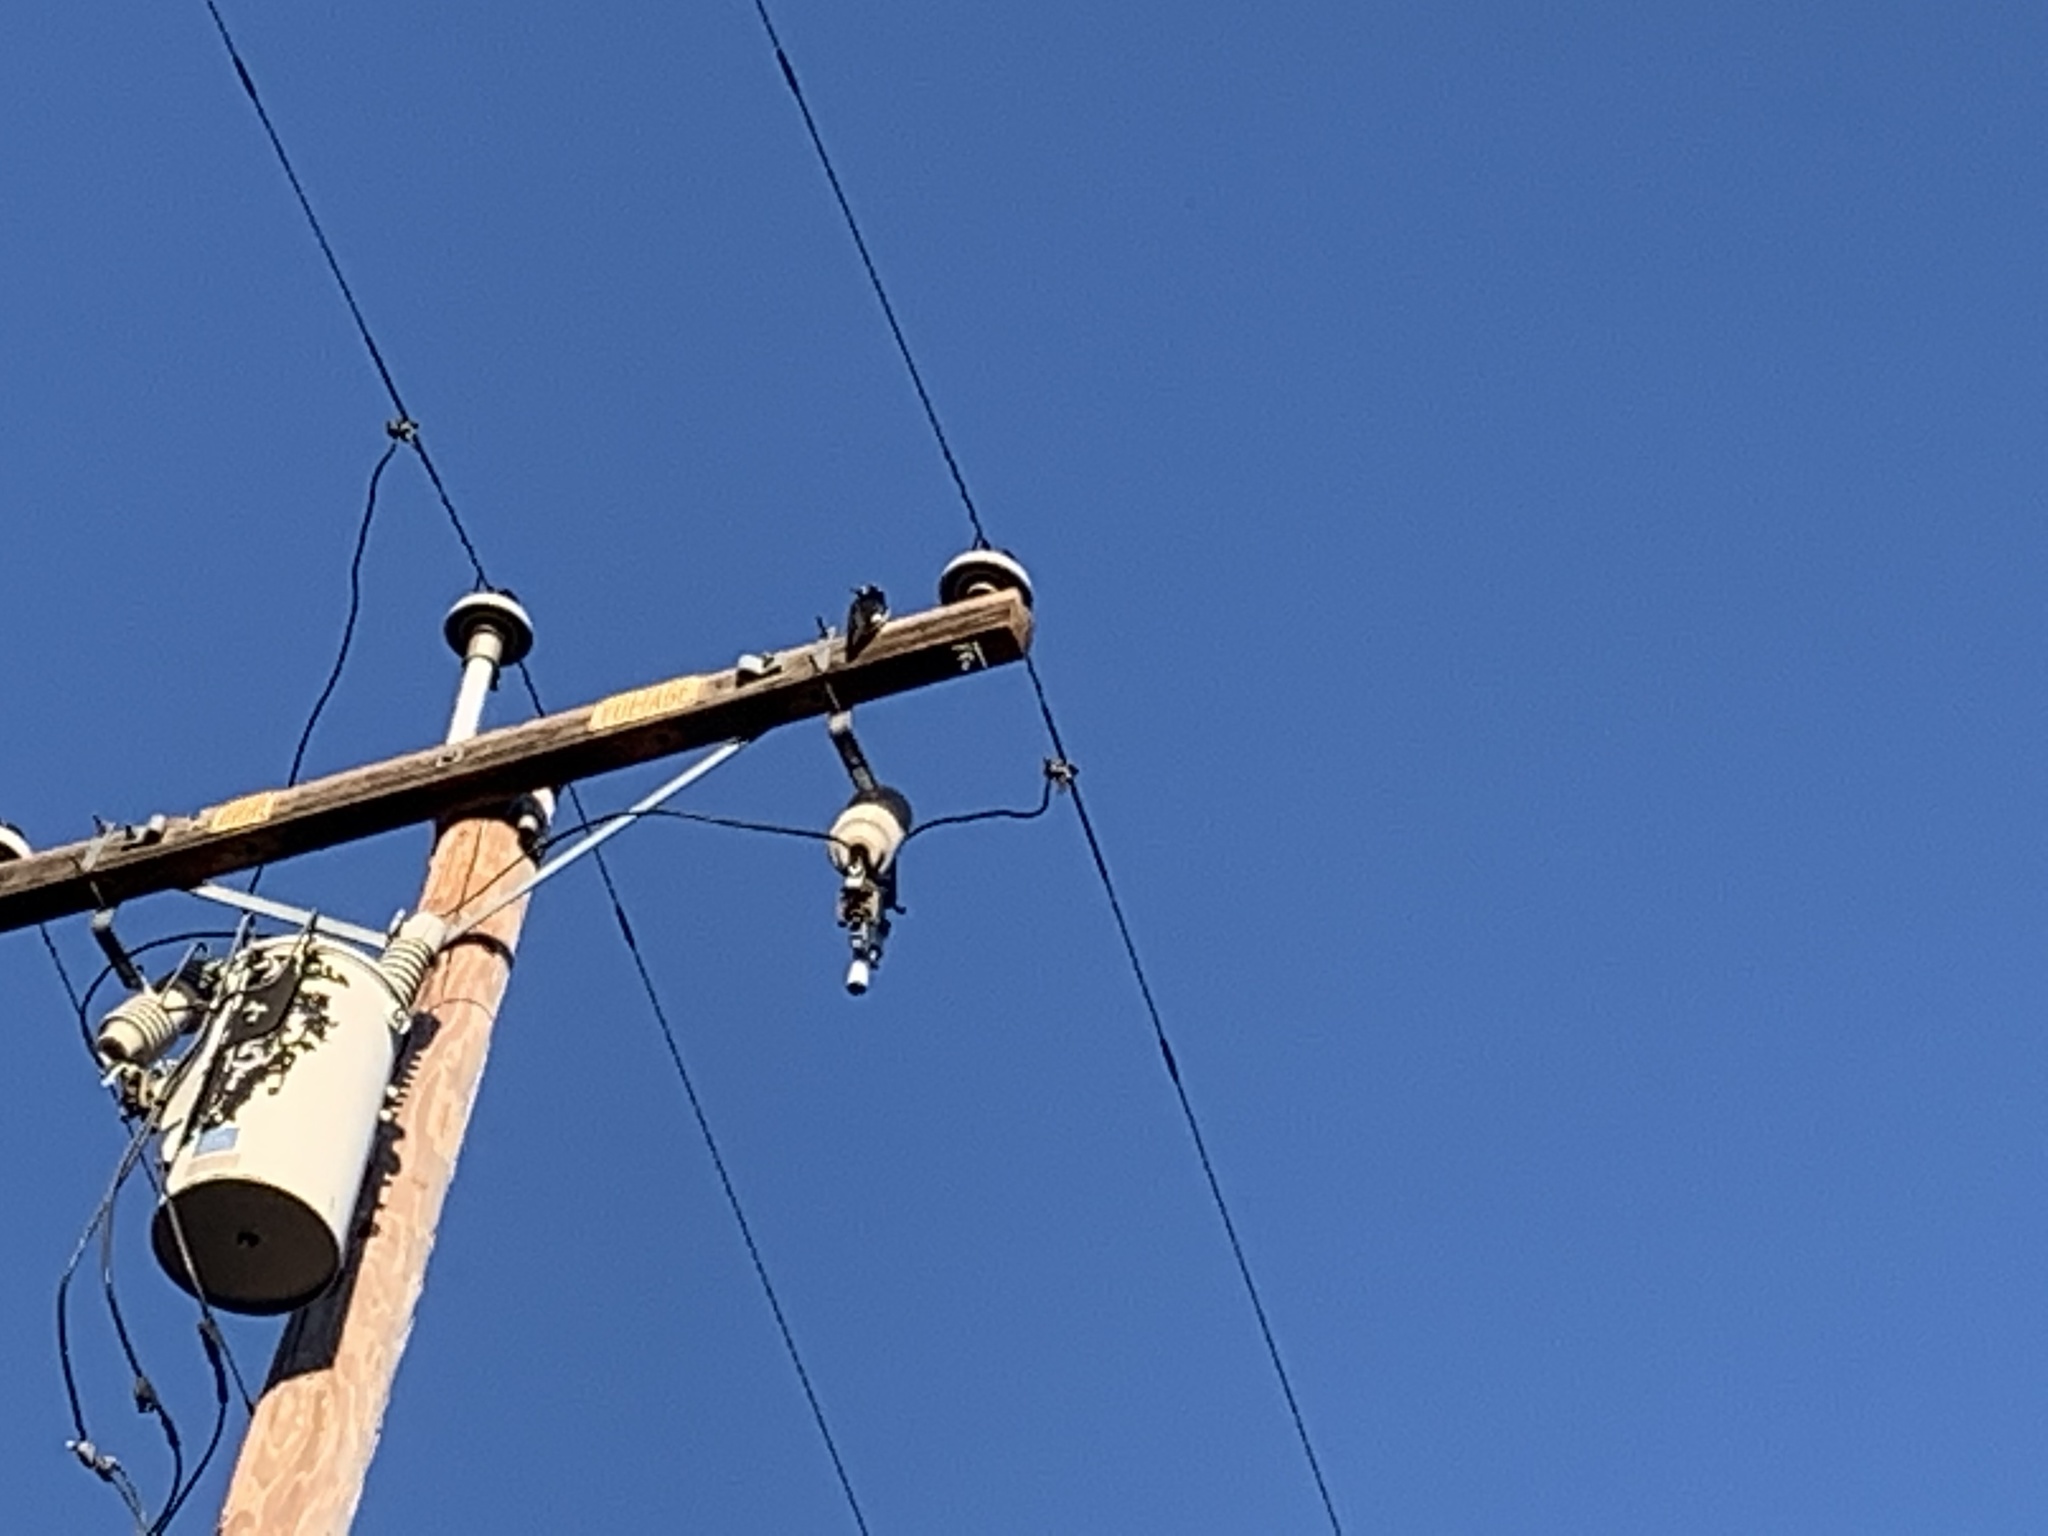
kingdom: Animalia
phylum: Chordata
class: Aves
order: Piciformes
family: Picidae
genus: Melanerpes
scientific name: Melanerpes formicivorus
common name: Acorn woodpecker
